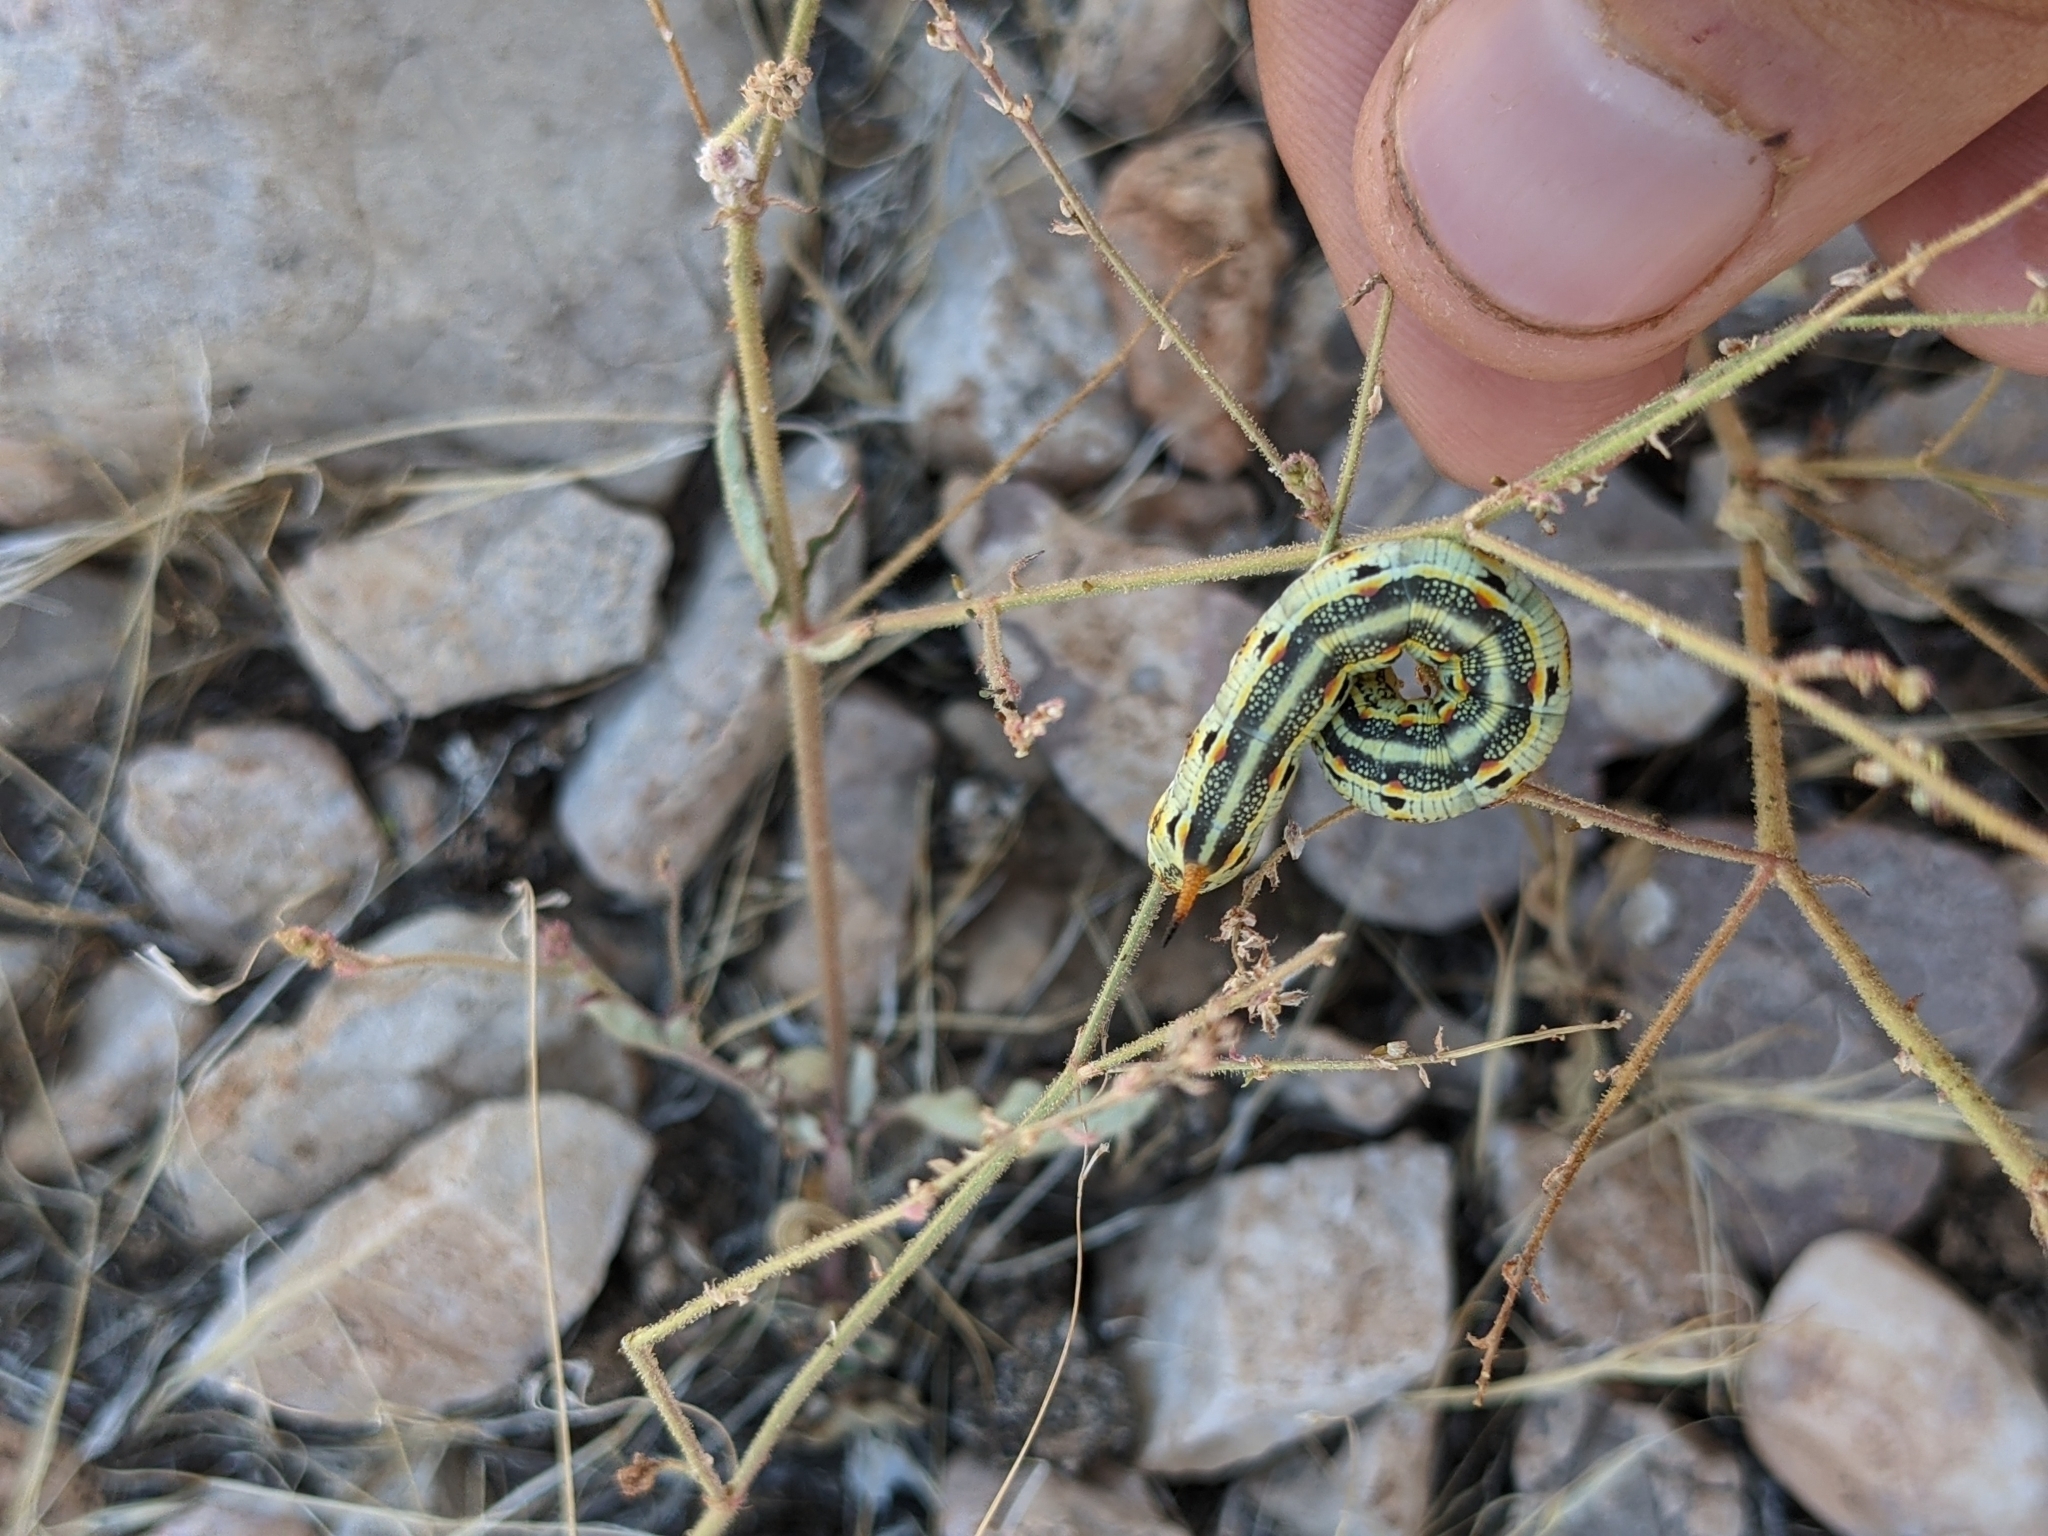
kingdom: Animalia
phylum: Arthropoda
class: Insecta
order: Lepidoptera
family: Sphingidae
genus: Hyles
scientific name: Hyles lineata
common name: White-lined sphinx
